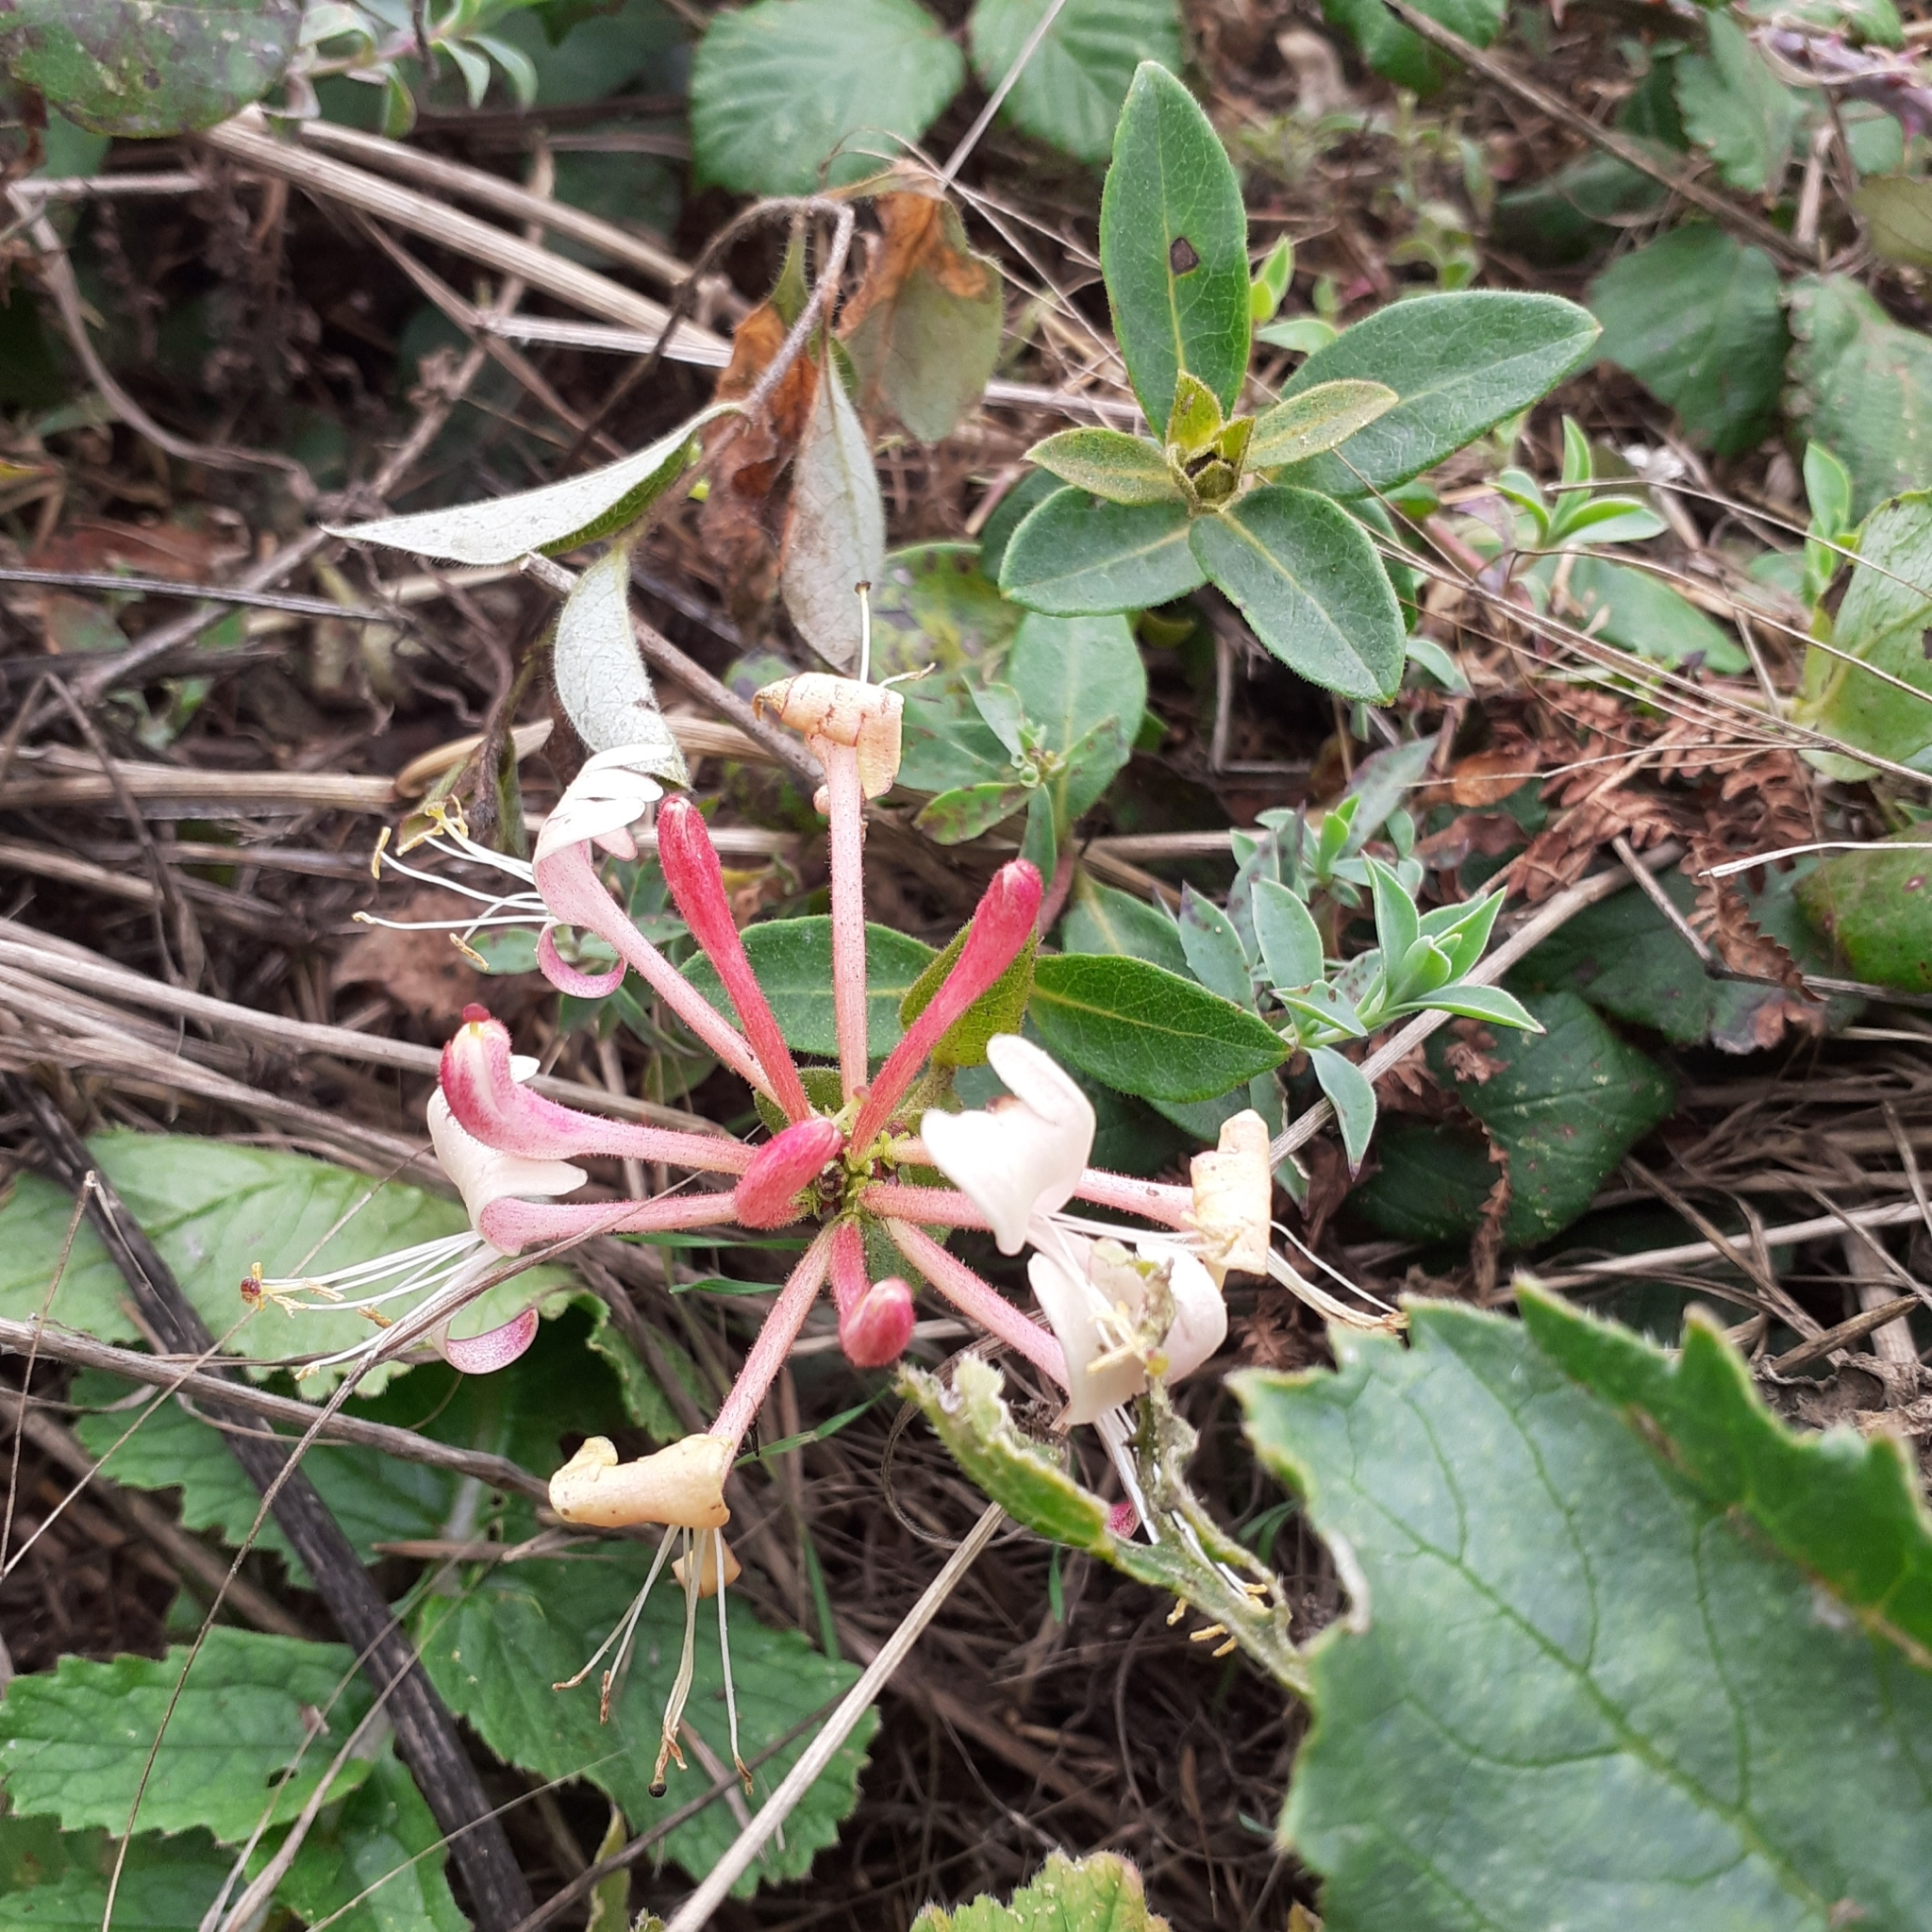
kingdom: Plantae
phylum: Tracheophyta
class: Magnoliopsida
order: Dipsacales
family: Caprifoliaceae
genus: Lonicera
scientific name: Lonicera periclymenum
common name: European honeysuckle
